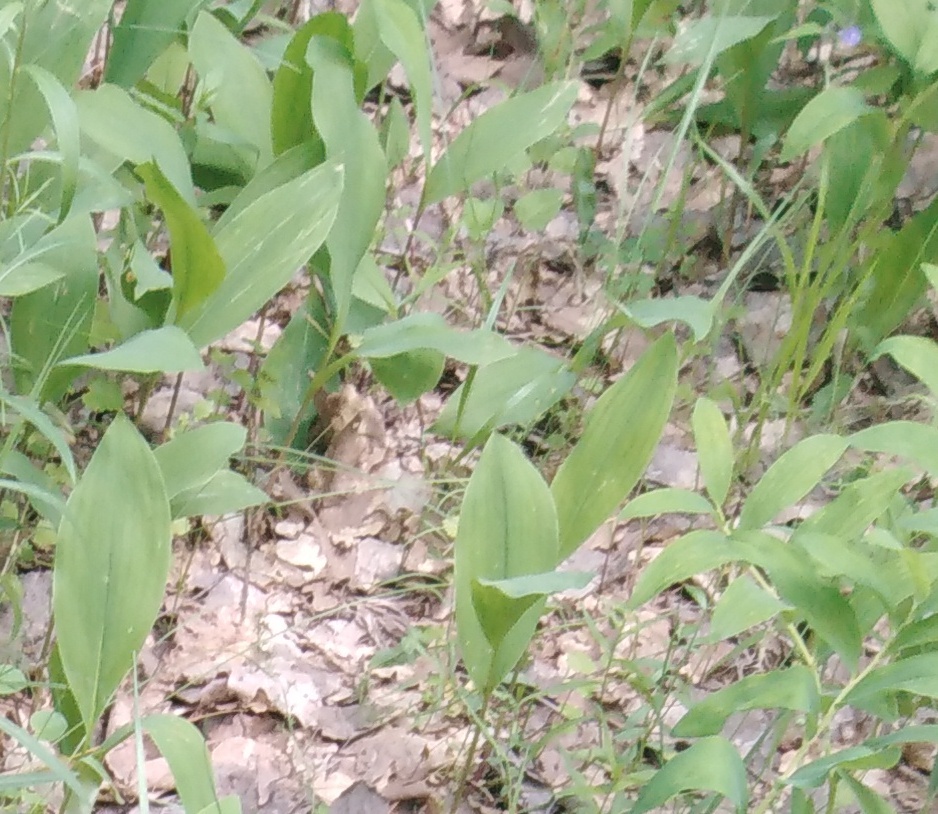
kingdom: Plantae
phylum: Tracheophyta
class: Liliopsida
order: Asparagales
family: Asparagaceae
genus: Convallaria
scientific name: Convallaria majalis
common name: Lily-of-the-valley
